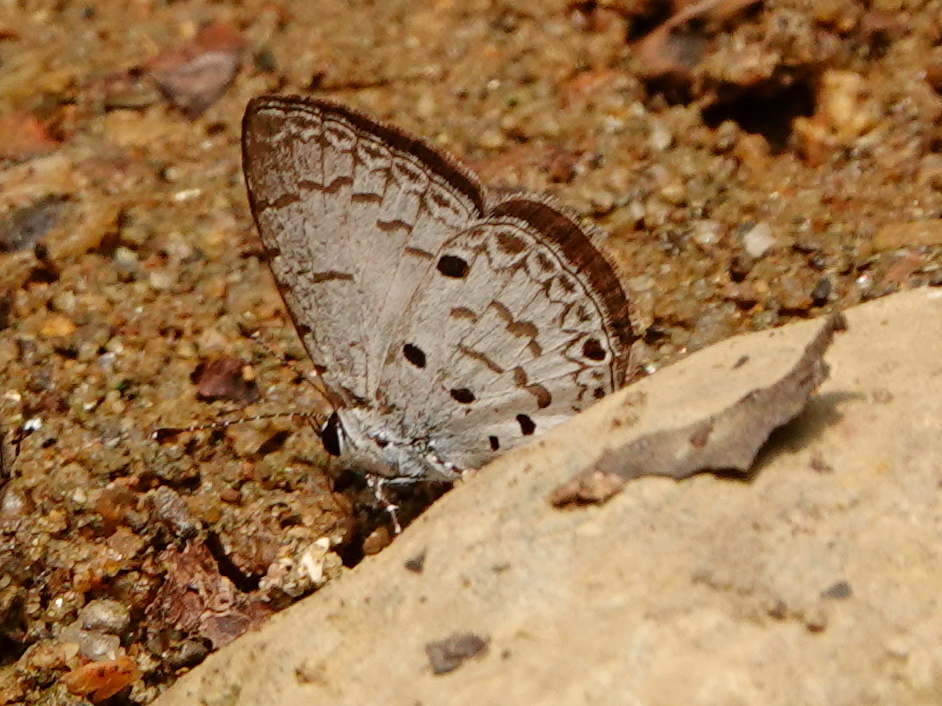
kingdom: Animalia
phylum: Arthropoda
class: Insecta
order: Lepidoptera
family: Lycaenidae
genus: Megisba
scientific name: Megisba malaya
